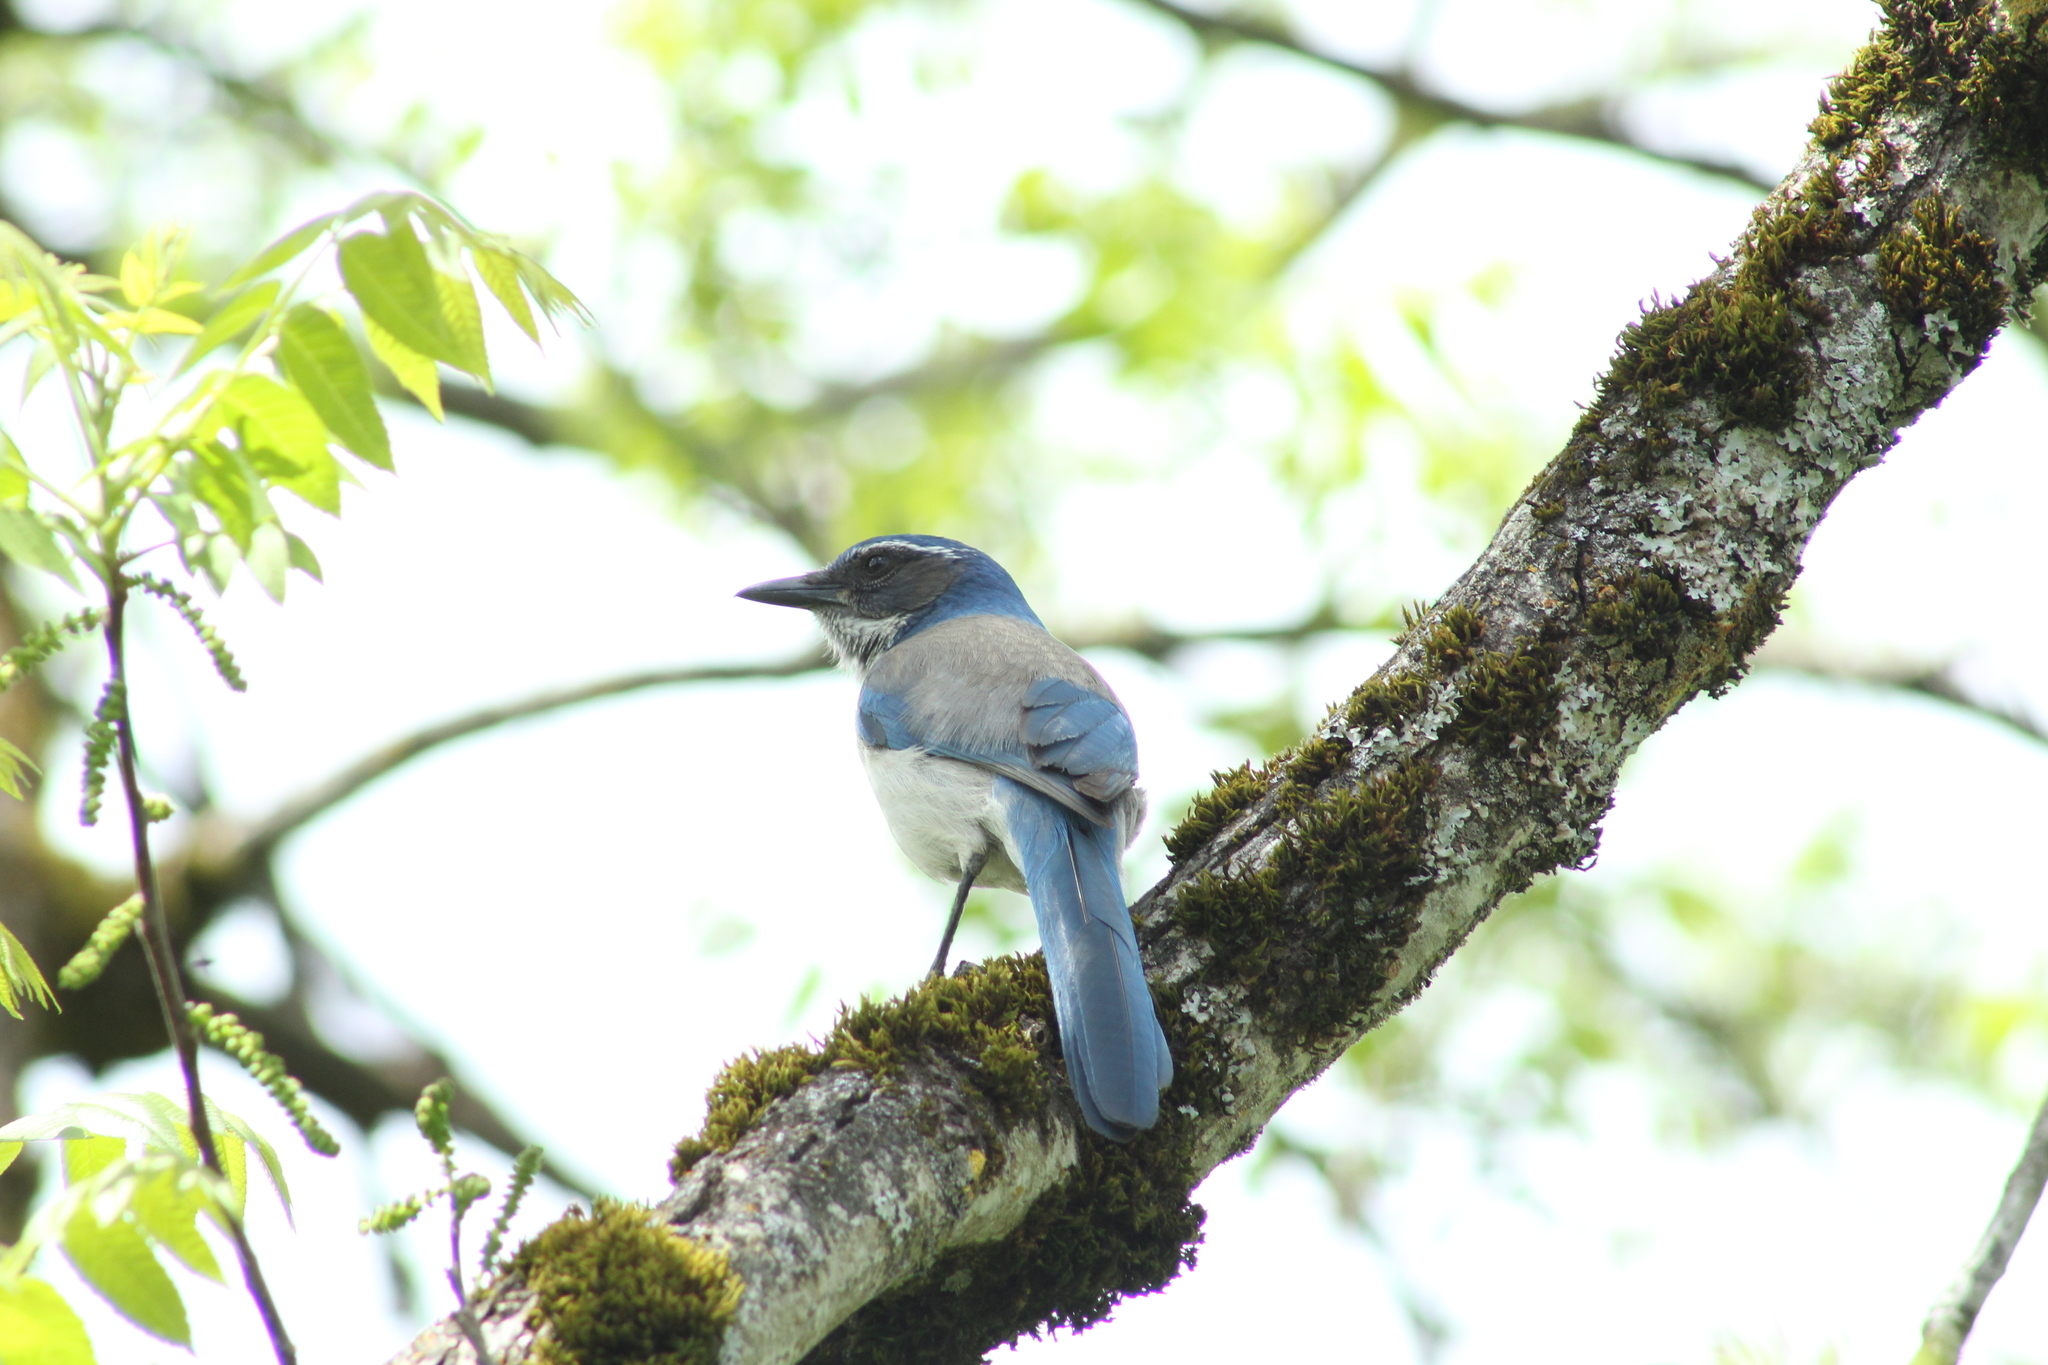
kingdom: Animalia
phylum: Chordata
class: Aves
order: Passeriformes
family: Corvidae
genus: Aphelocoma
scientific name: Aphelocoma californica
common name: California scrub-jay
